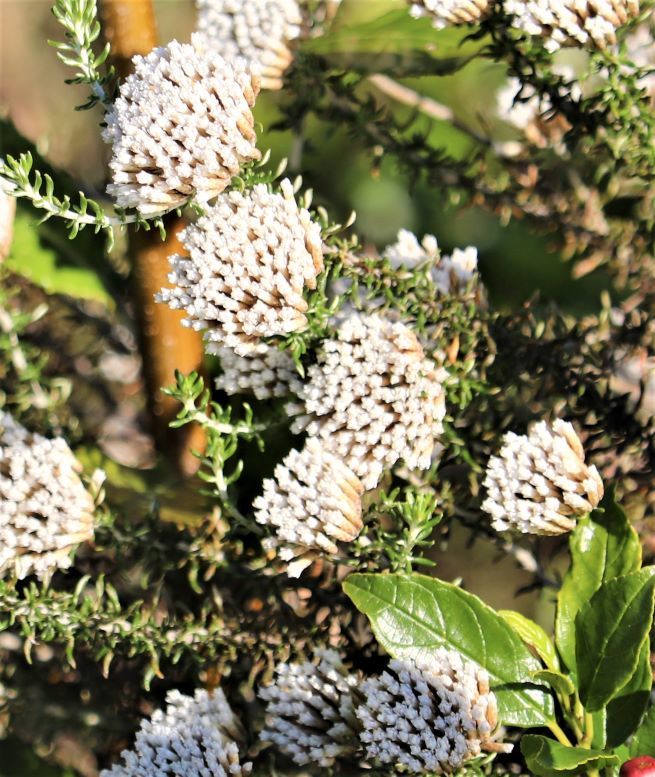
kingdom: Plantae
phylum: Tracheophyta
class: Magnoliopsida
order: Asterales
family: Asteraceae
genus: Metalasia
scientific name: Metalasia muricata
